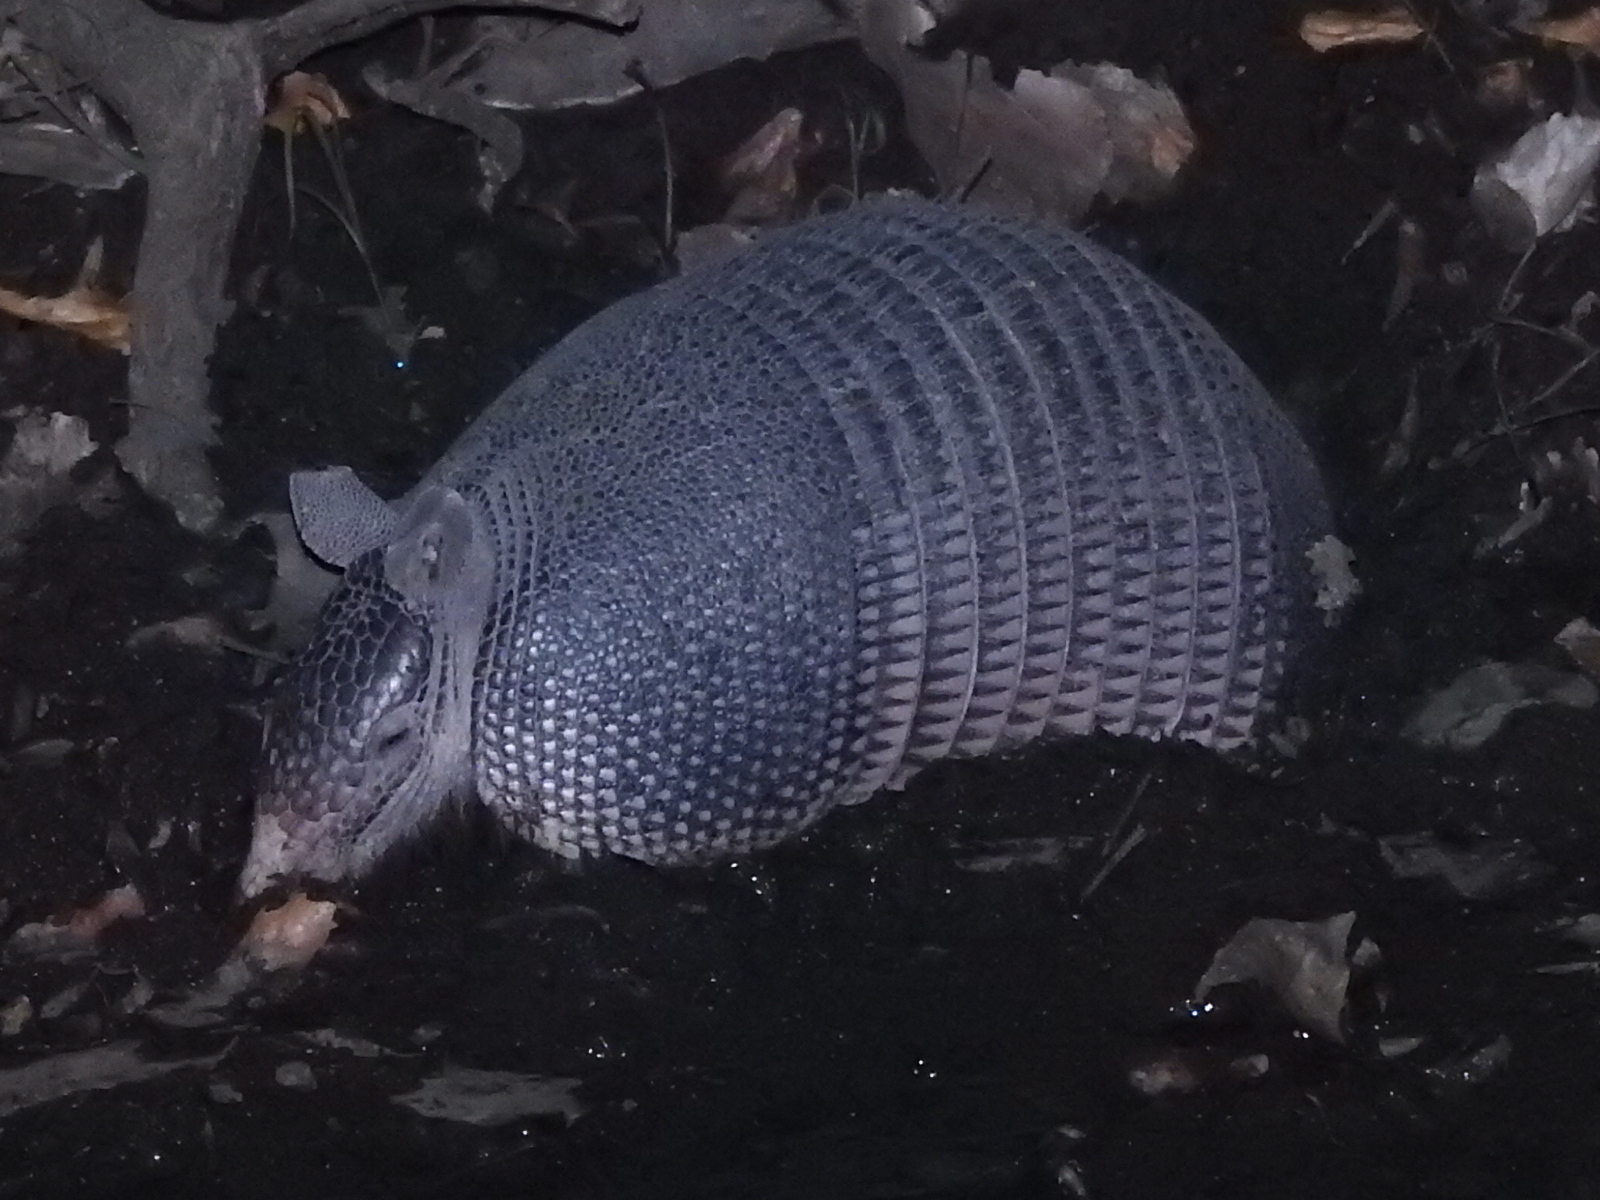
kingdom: Animalia
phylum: Chordata
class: Mammalia
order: Cingulata
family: Dasypodidae
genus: Dasypus
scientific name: Dasypus novemcinctus
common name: Nine-banded armadillo
